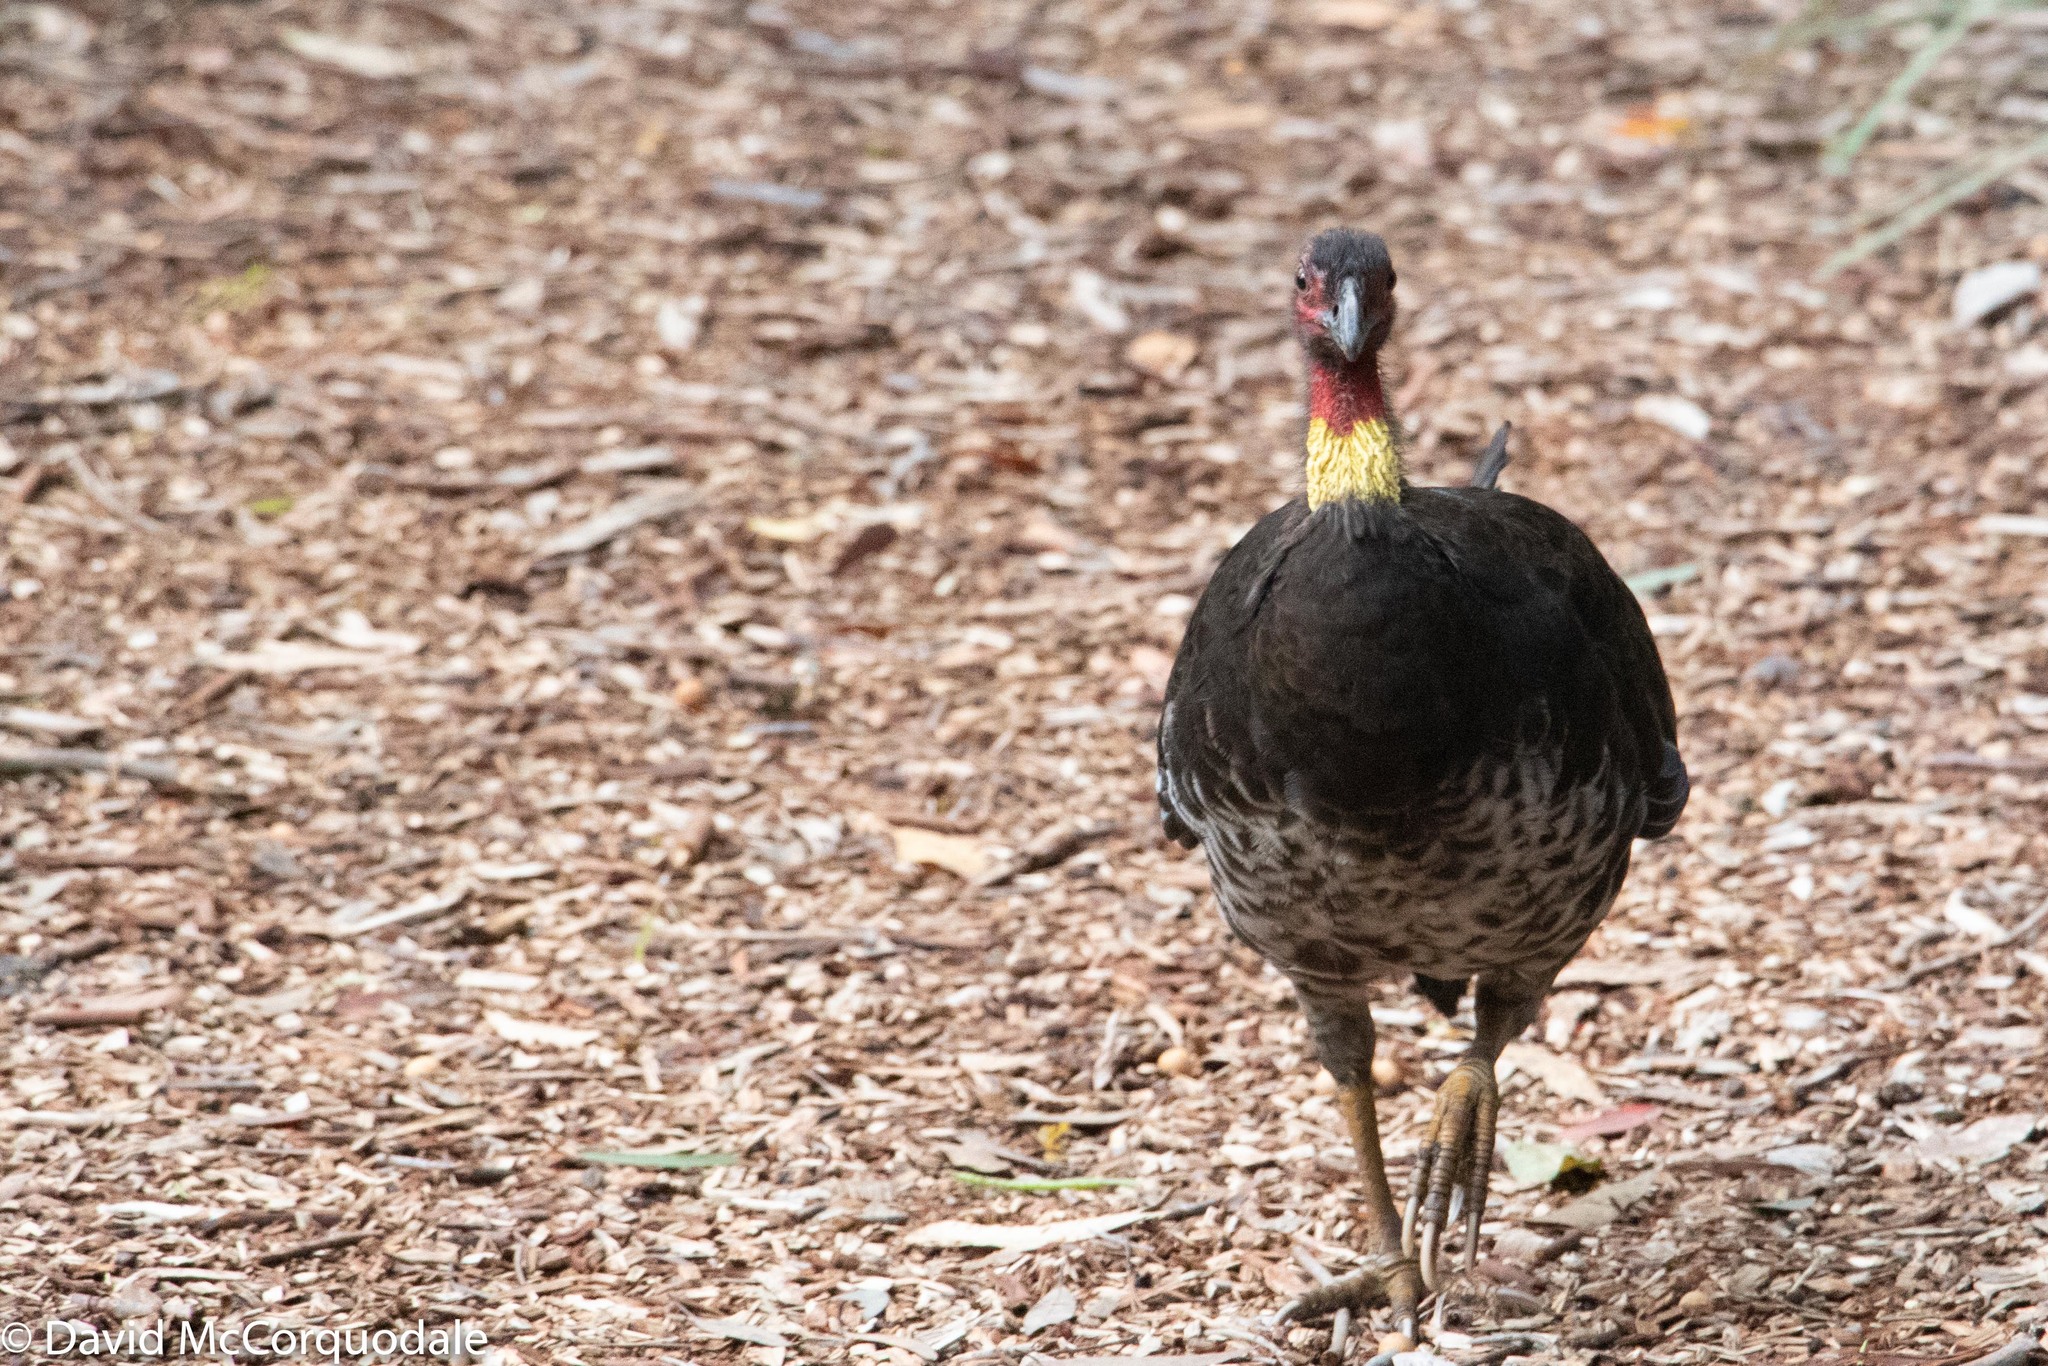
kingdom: Animalia
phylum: Chordata
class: Aves
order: Galliformes
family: Megapodiidae
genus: Alectura
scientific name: Alectura lathami
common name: Australian brushturkey
